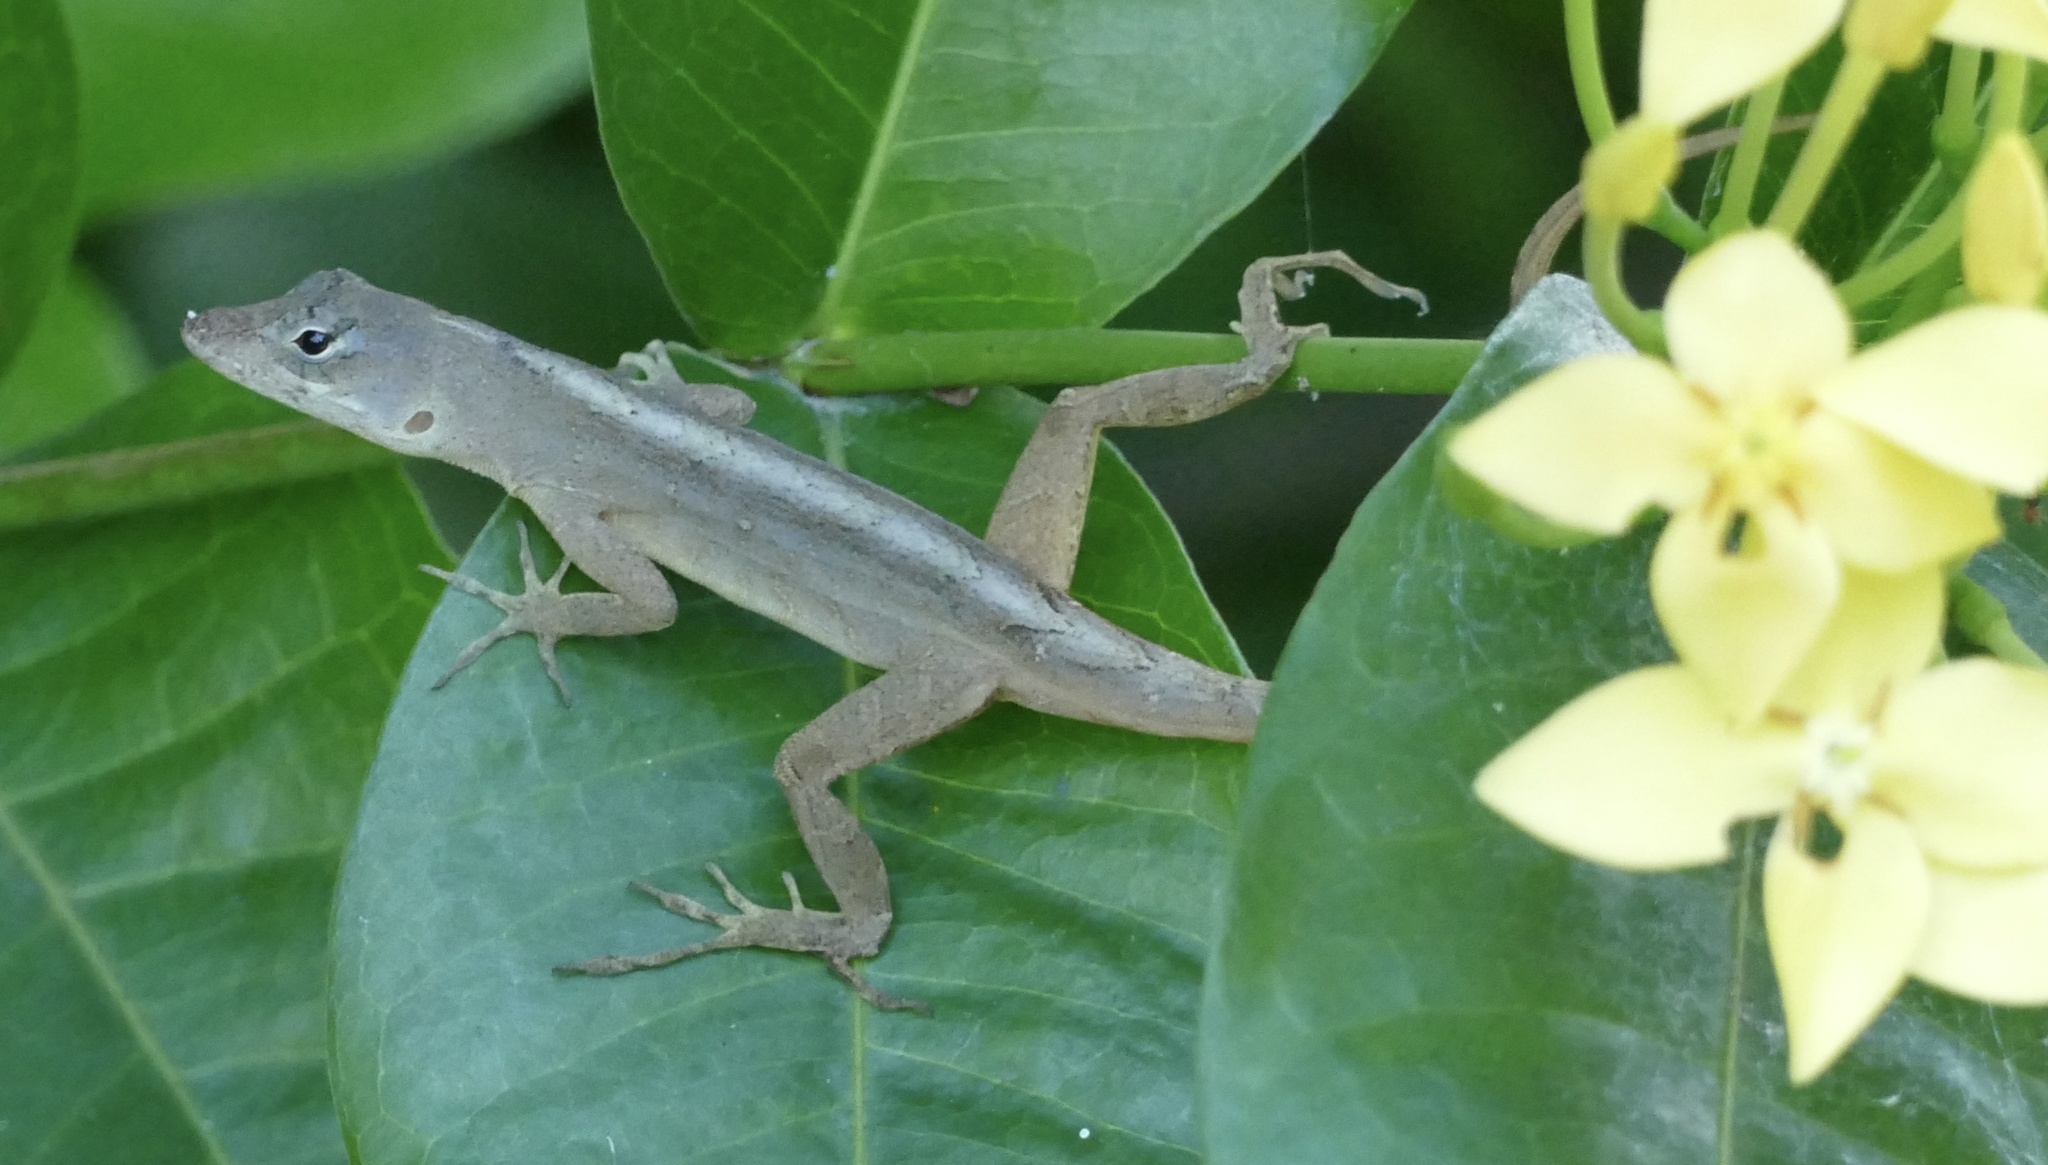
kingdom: Animalia
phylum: Chordata
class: Squamata
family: Dactyloidae
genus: Anolis
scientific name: Anolis sagrei
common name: Brown anole
